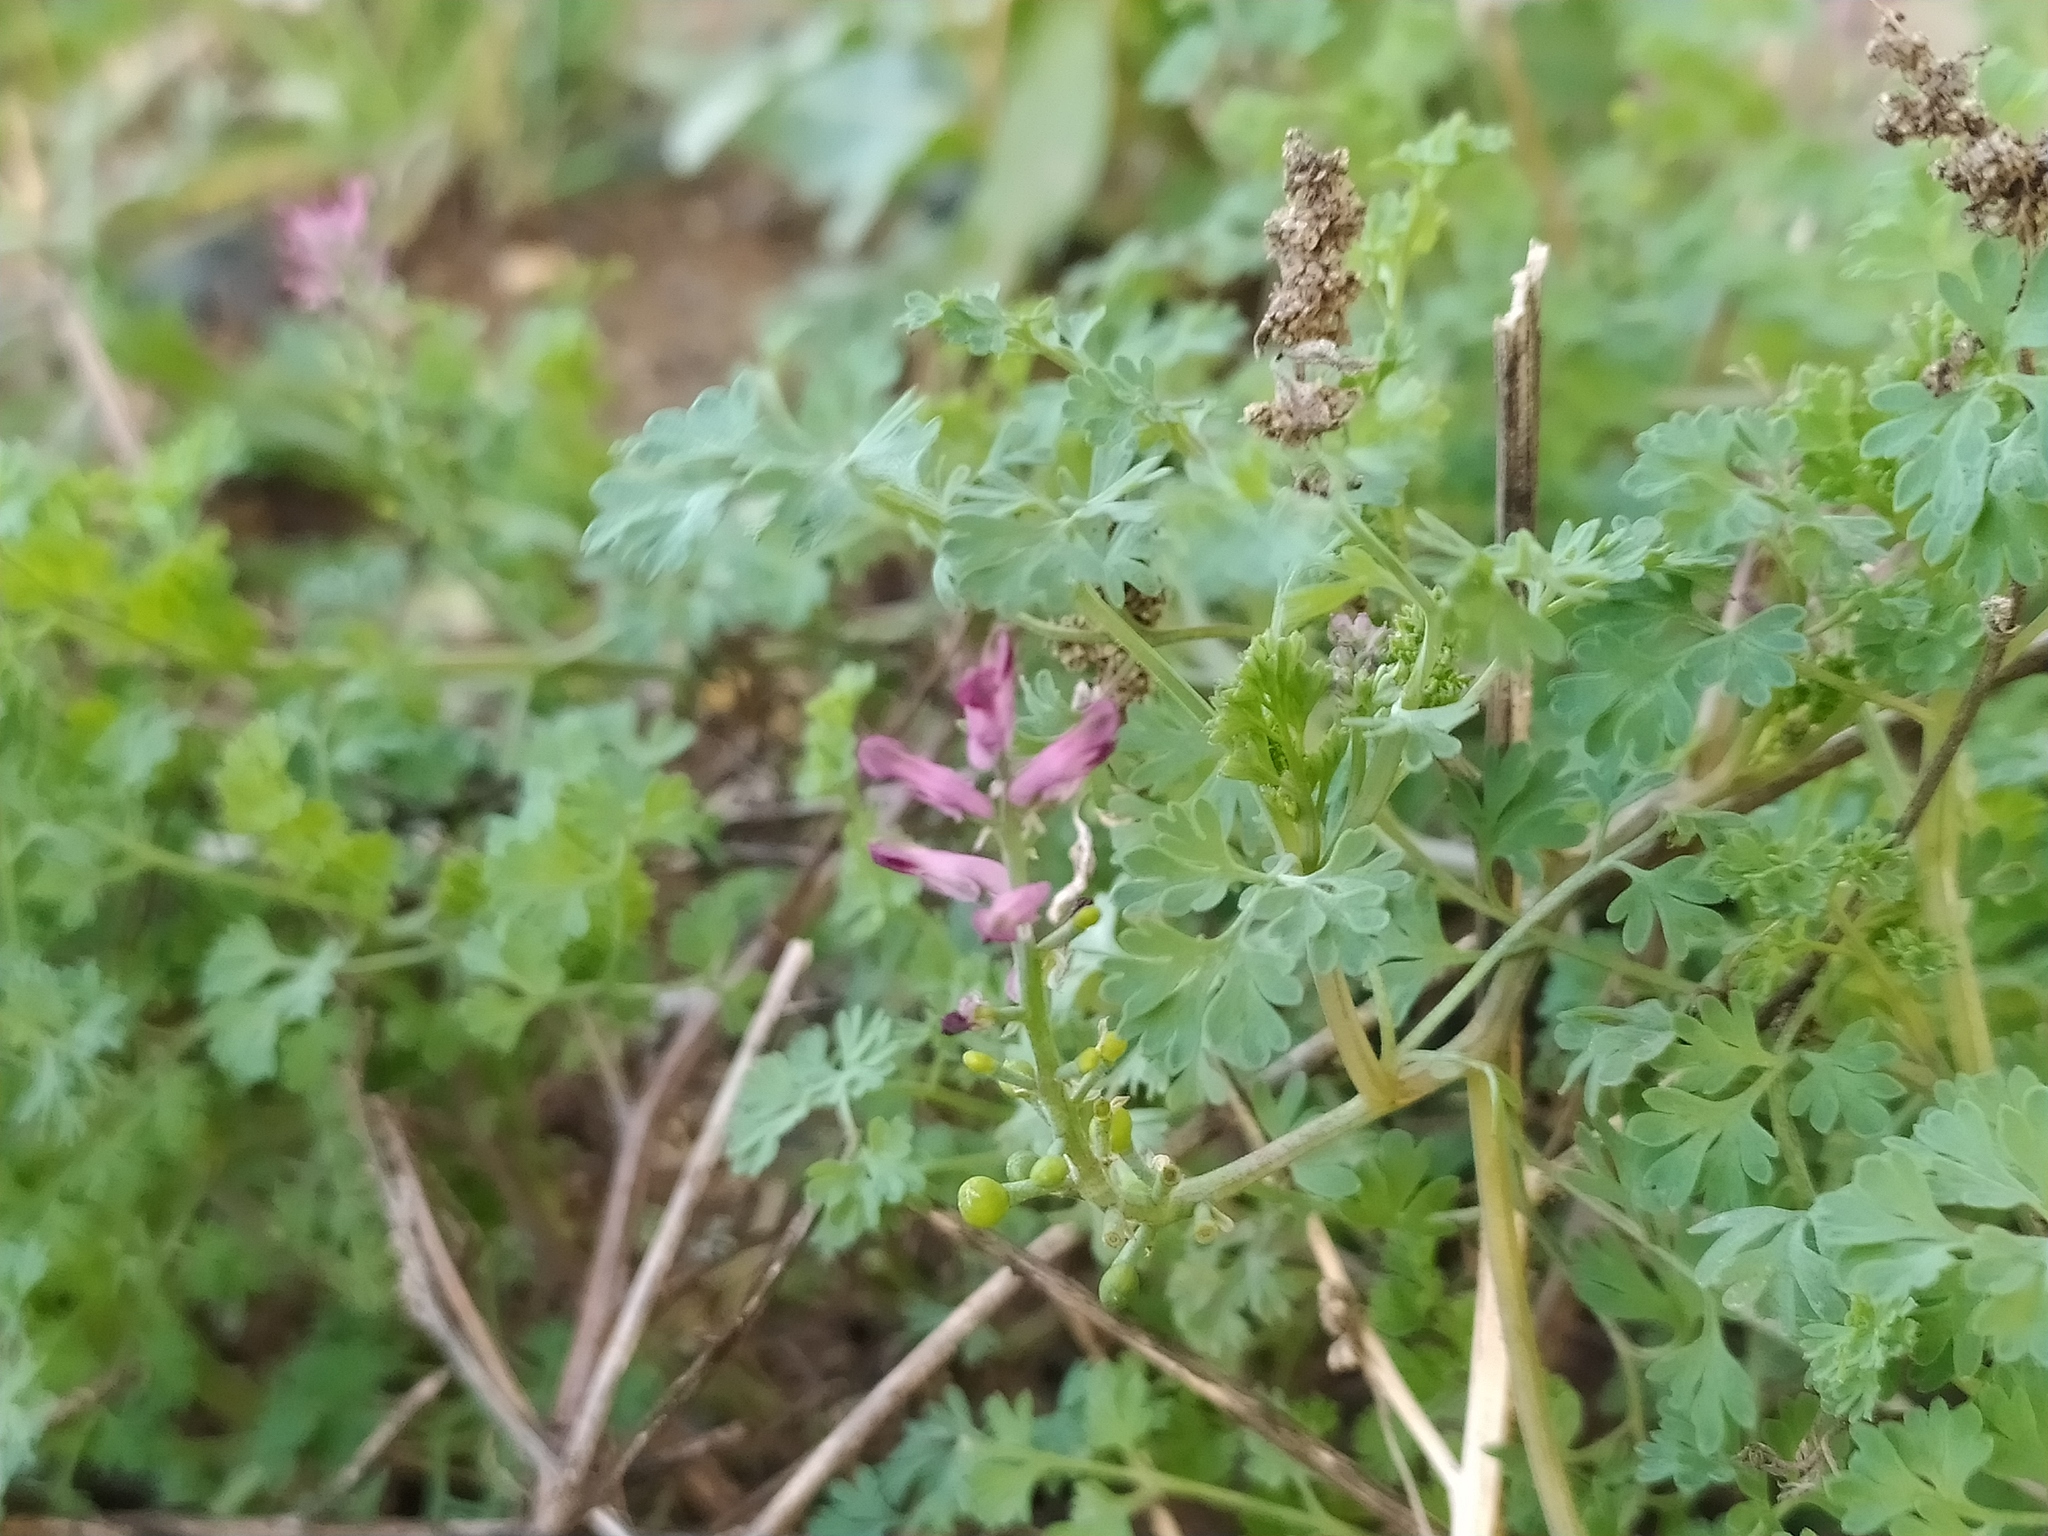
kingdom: Plantae
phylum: Tracheophyta
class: Magnoliopsida
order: Ranunculales
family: Papaveraceae
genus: Fumaria
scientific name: Fumaria officinalis
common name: Common fumitory
